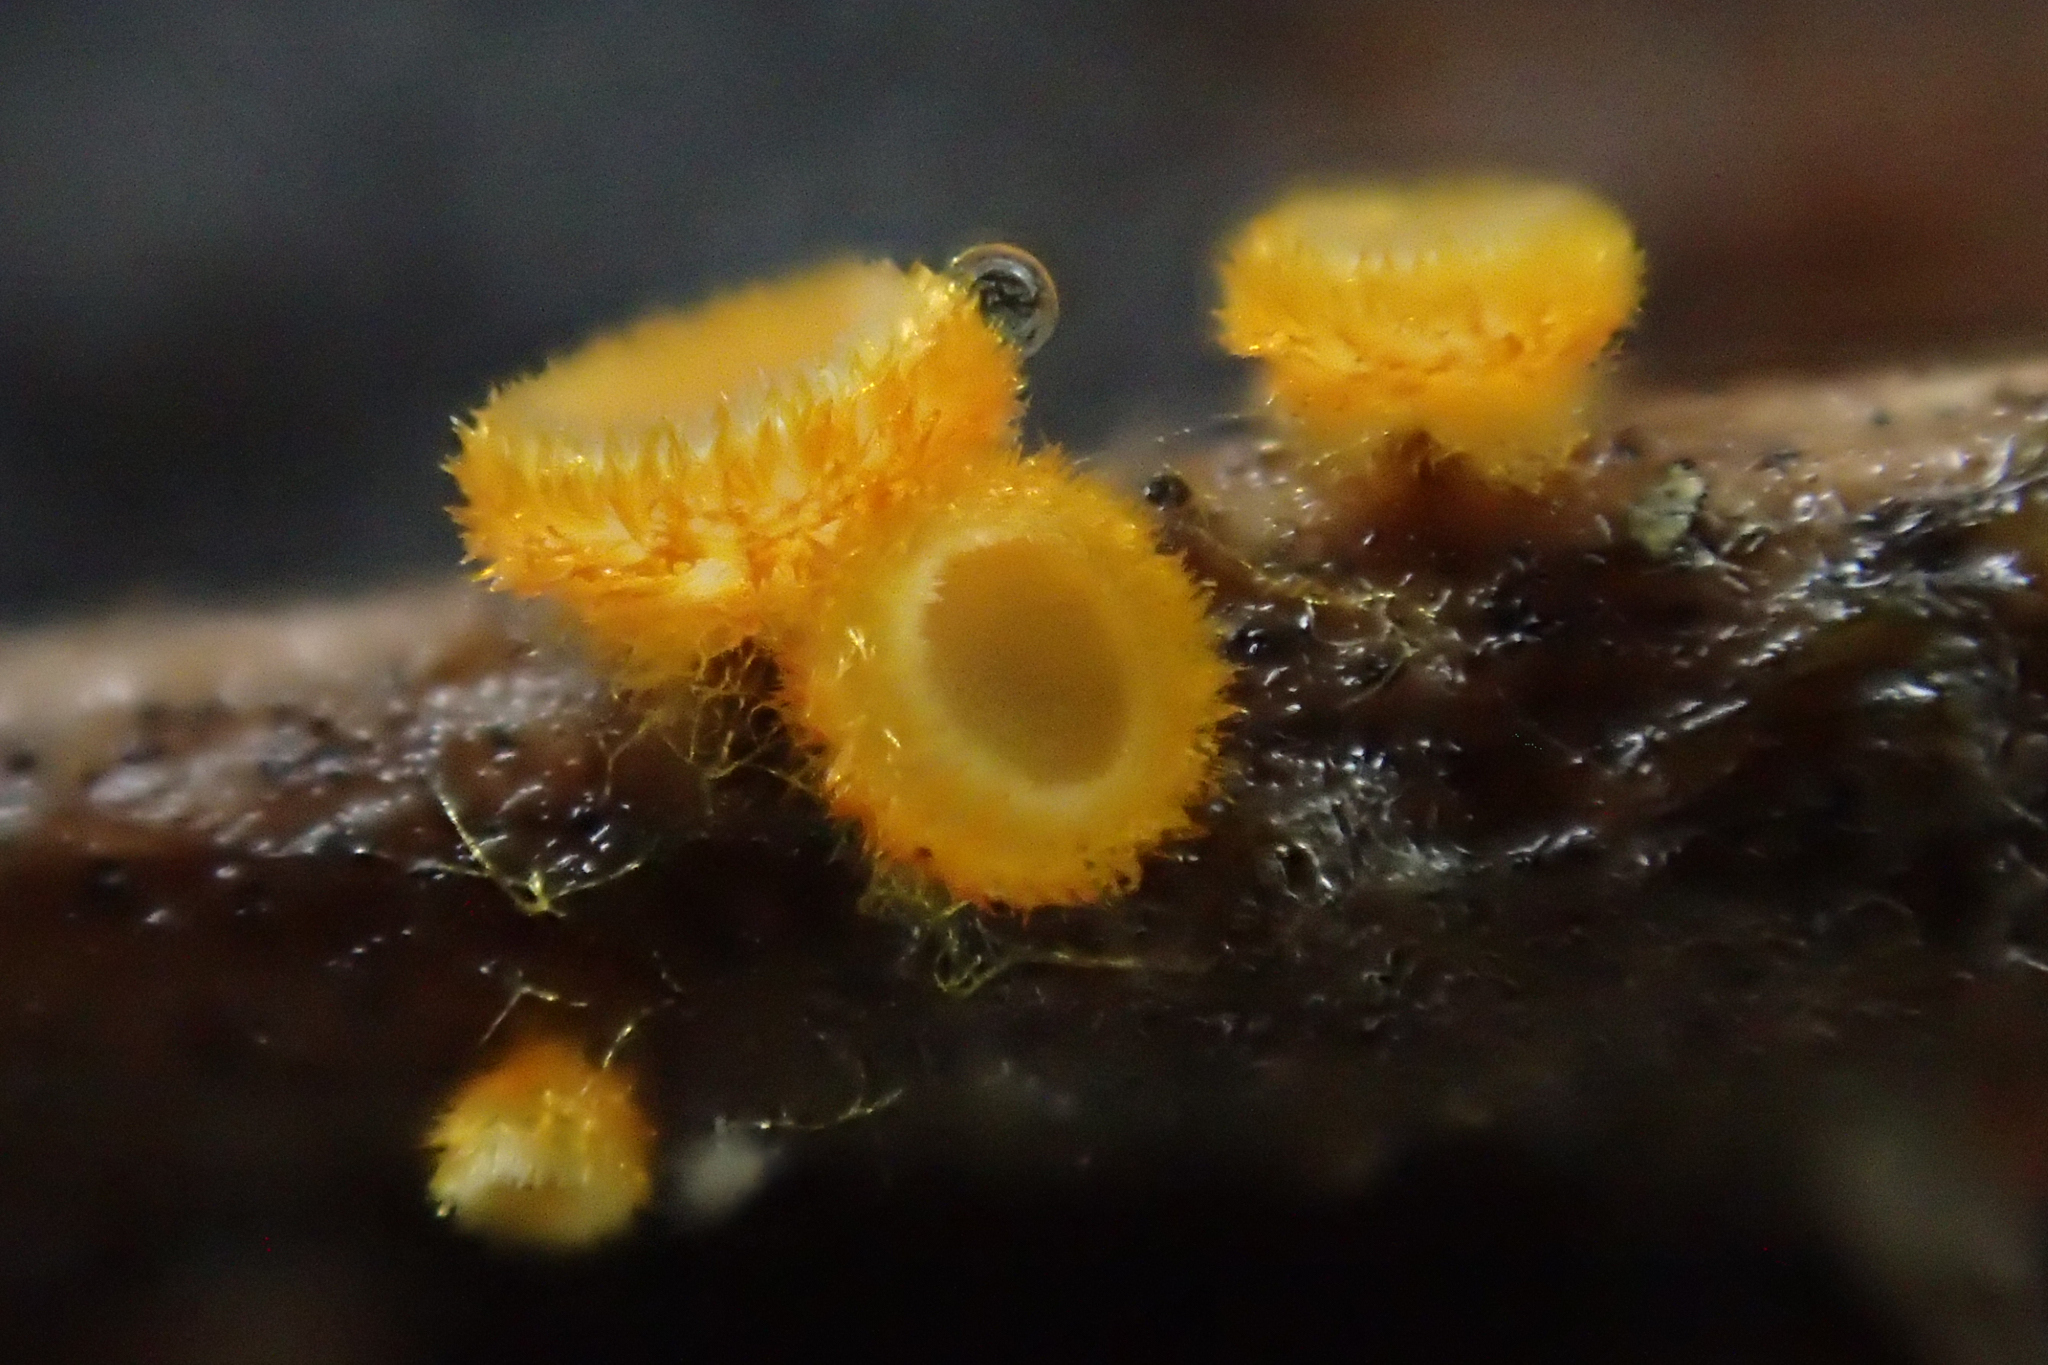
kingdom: Fungi
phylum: Ascomycota
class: Leotiomycetes
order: Helotiales
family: Arachnopezizaceae
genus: Arachnopeziza
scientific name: Arachnopeziza aurelia
